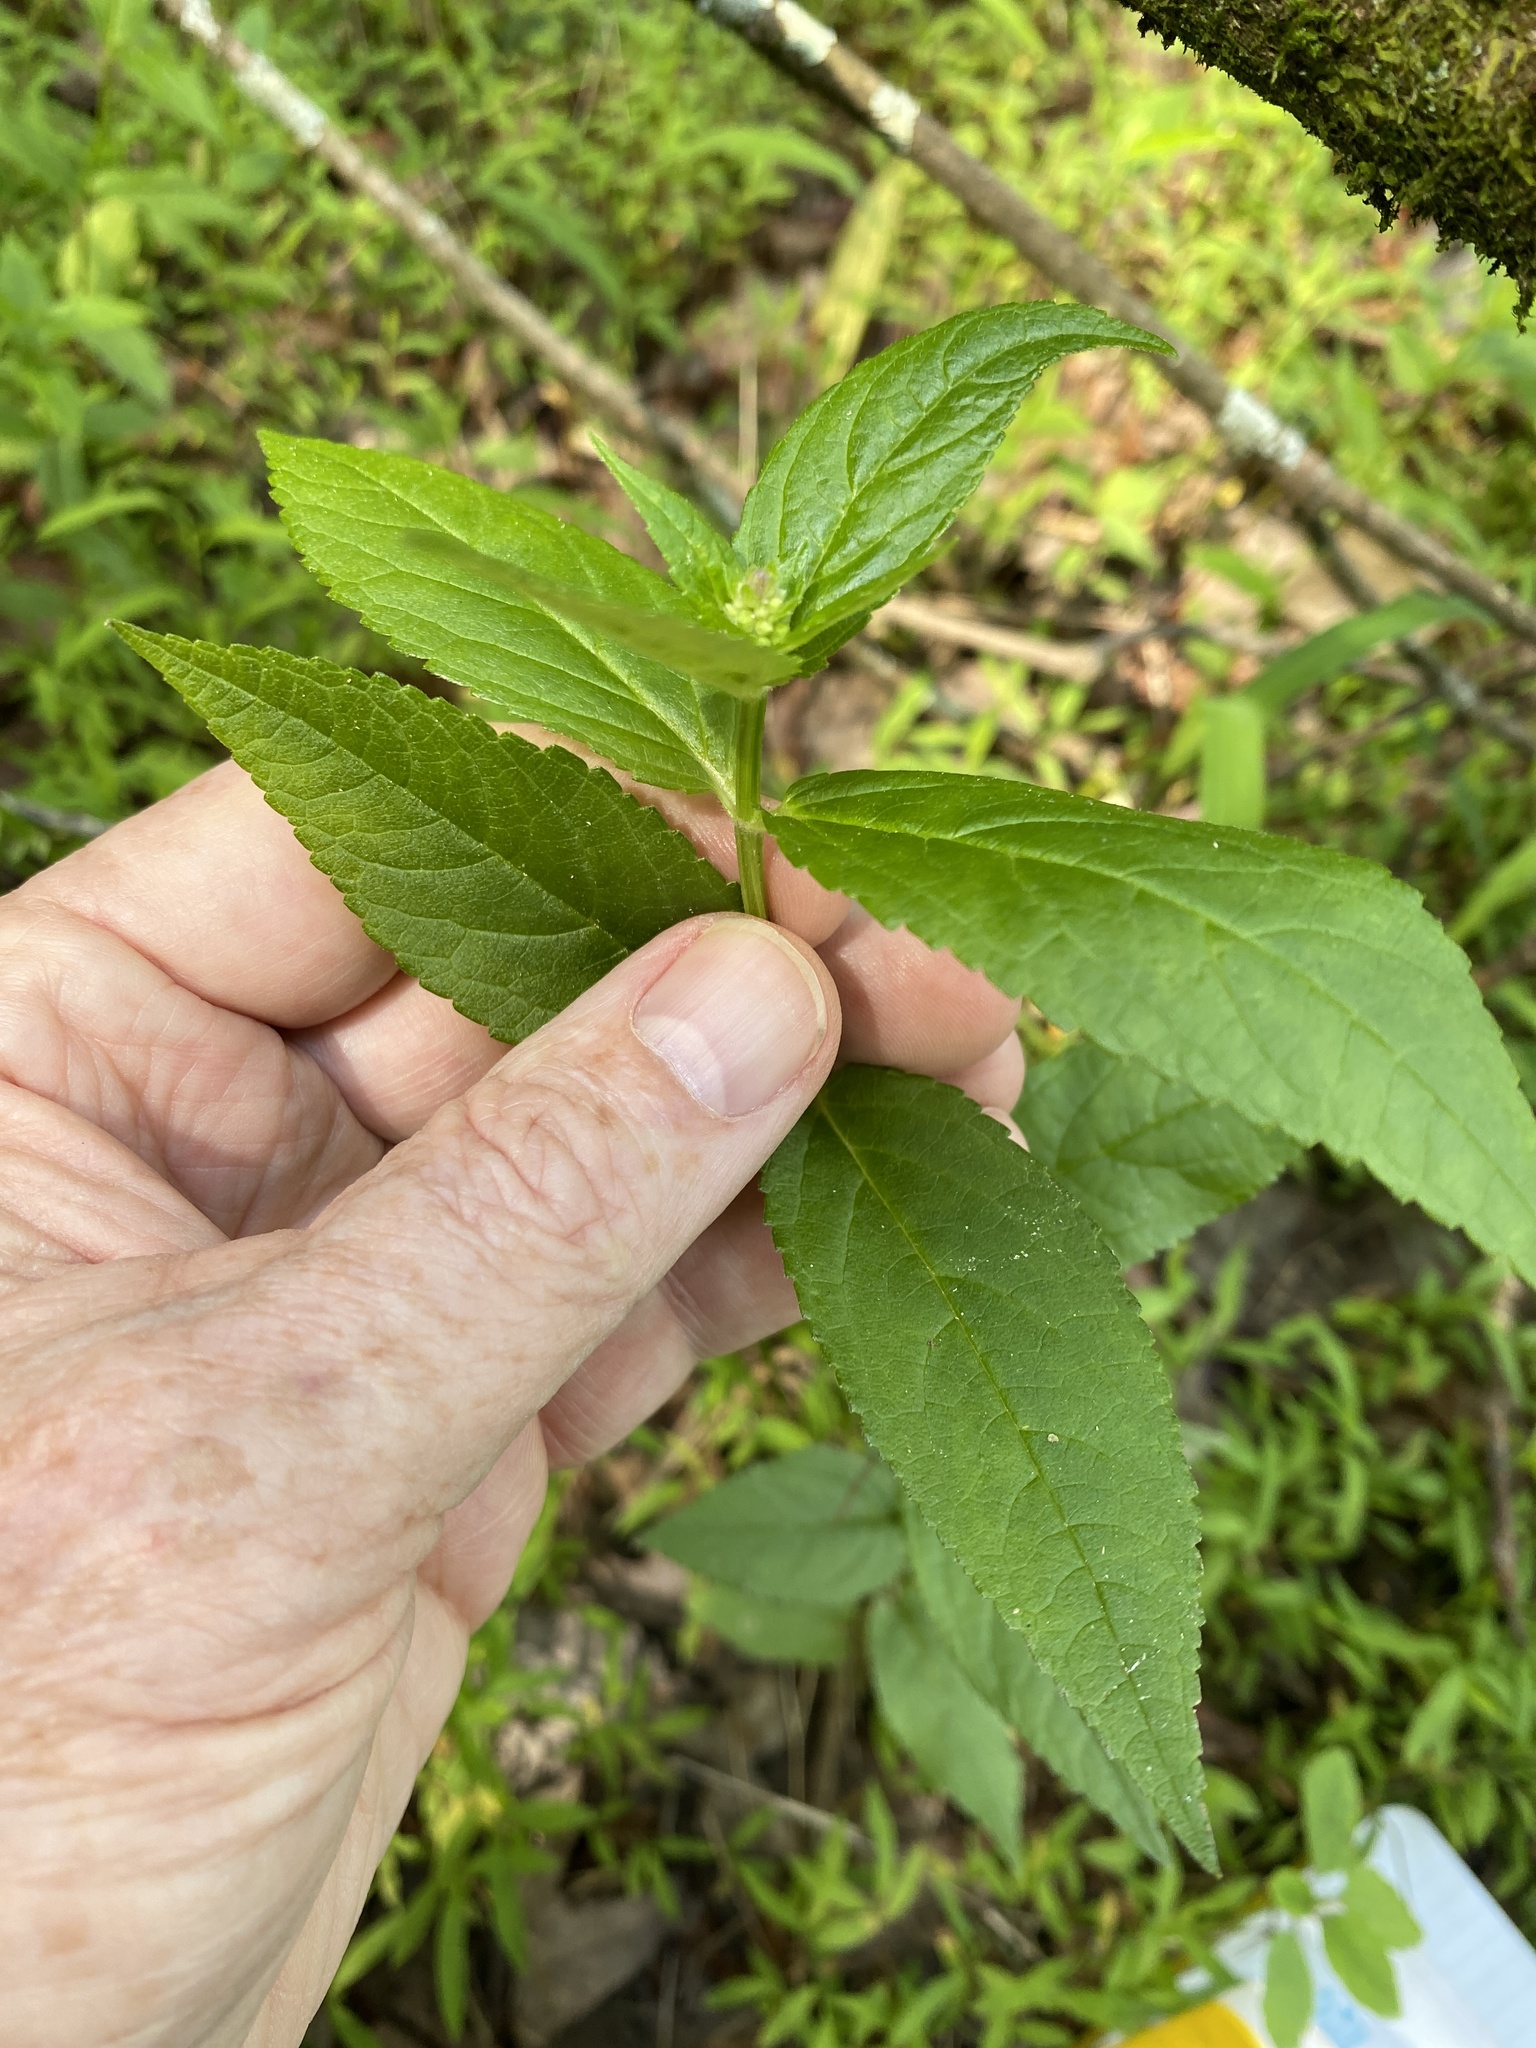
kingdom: Plantae
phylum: Tracheophyta
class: Magnoliopsida
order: Lamiales
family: Lamiaceae
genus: Stachys
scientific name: Stachys latidens
